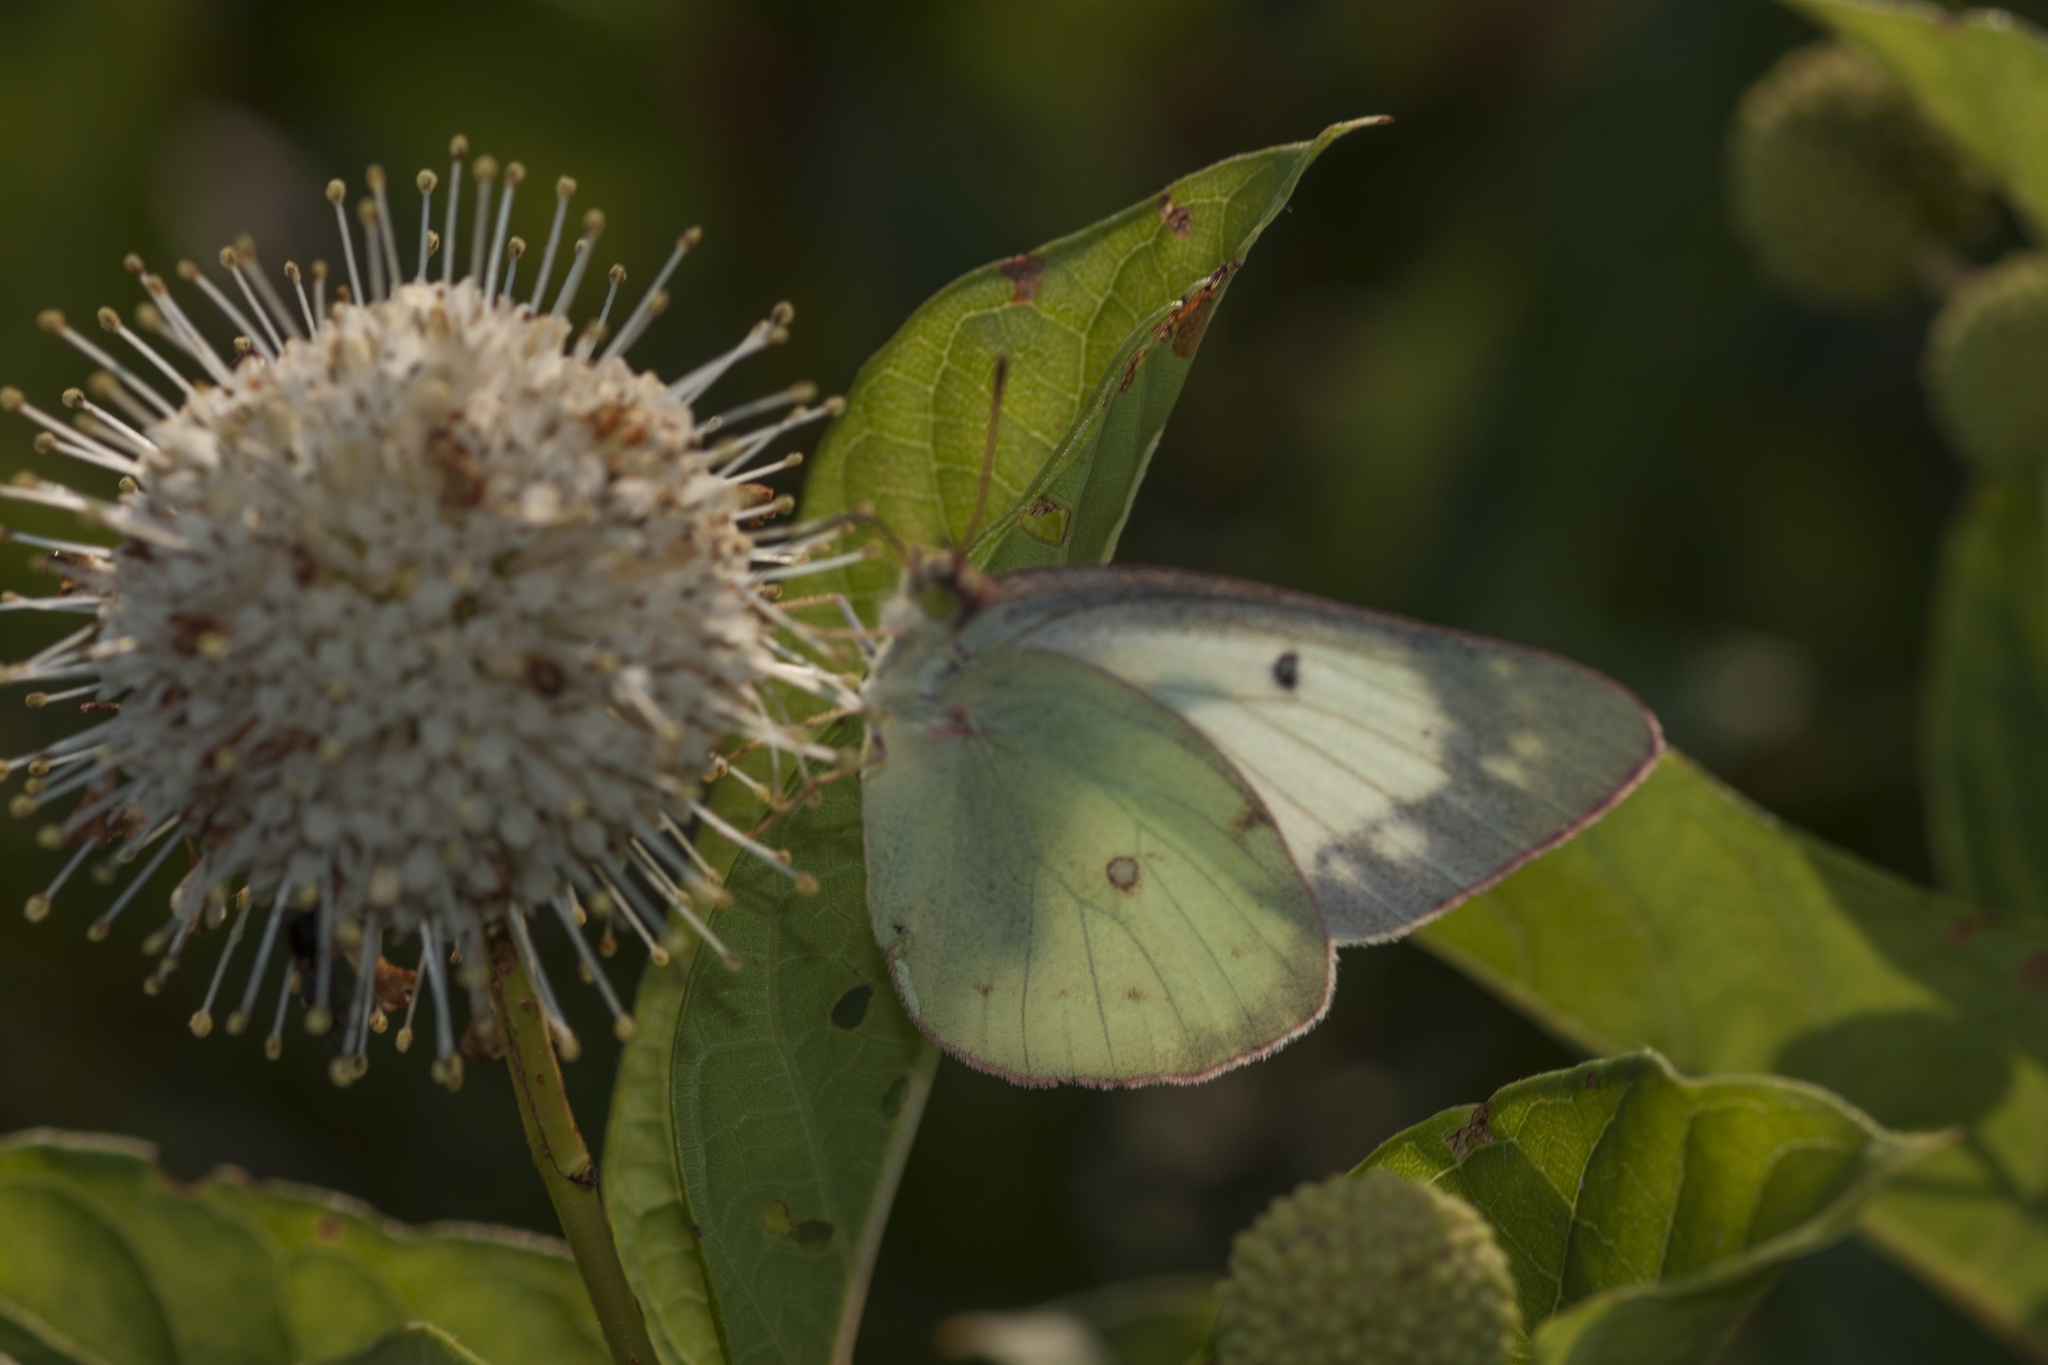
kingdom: Animalia
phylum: Arthropoda
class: Insecta
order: Lepidoptera
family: Pieridae
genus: Colias
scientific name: Colias philodice
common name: Clouded sulphur
